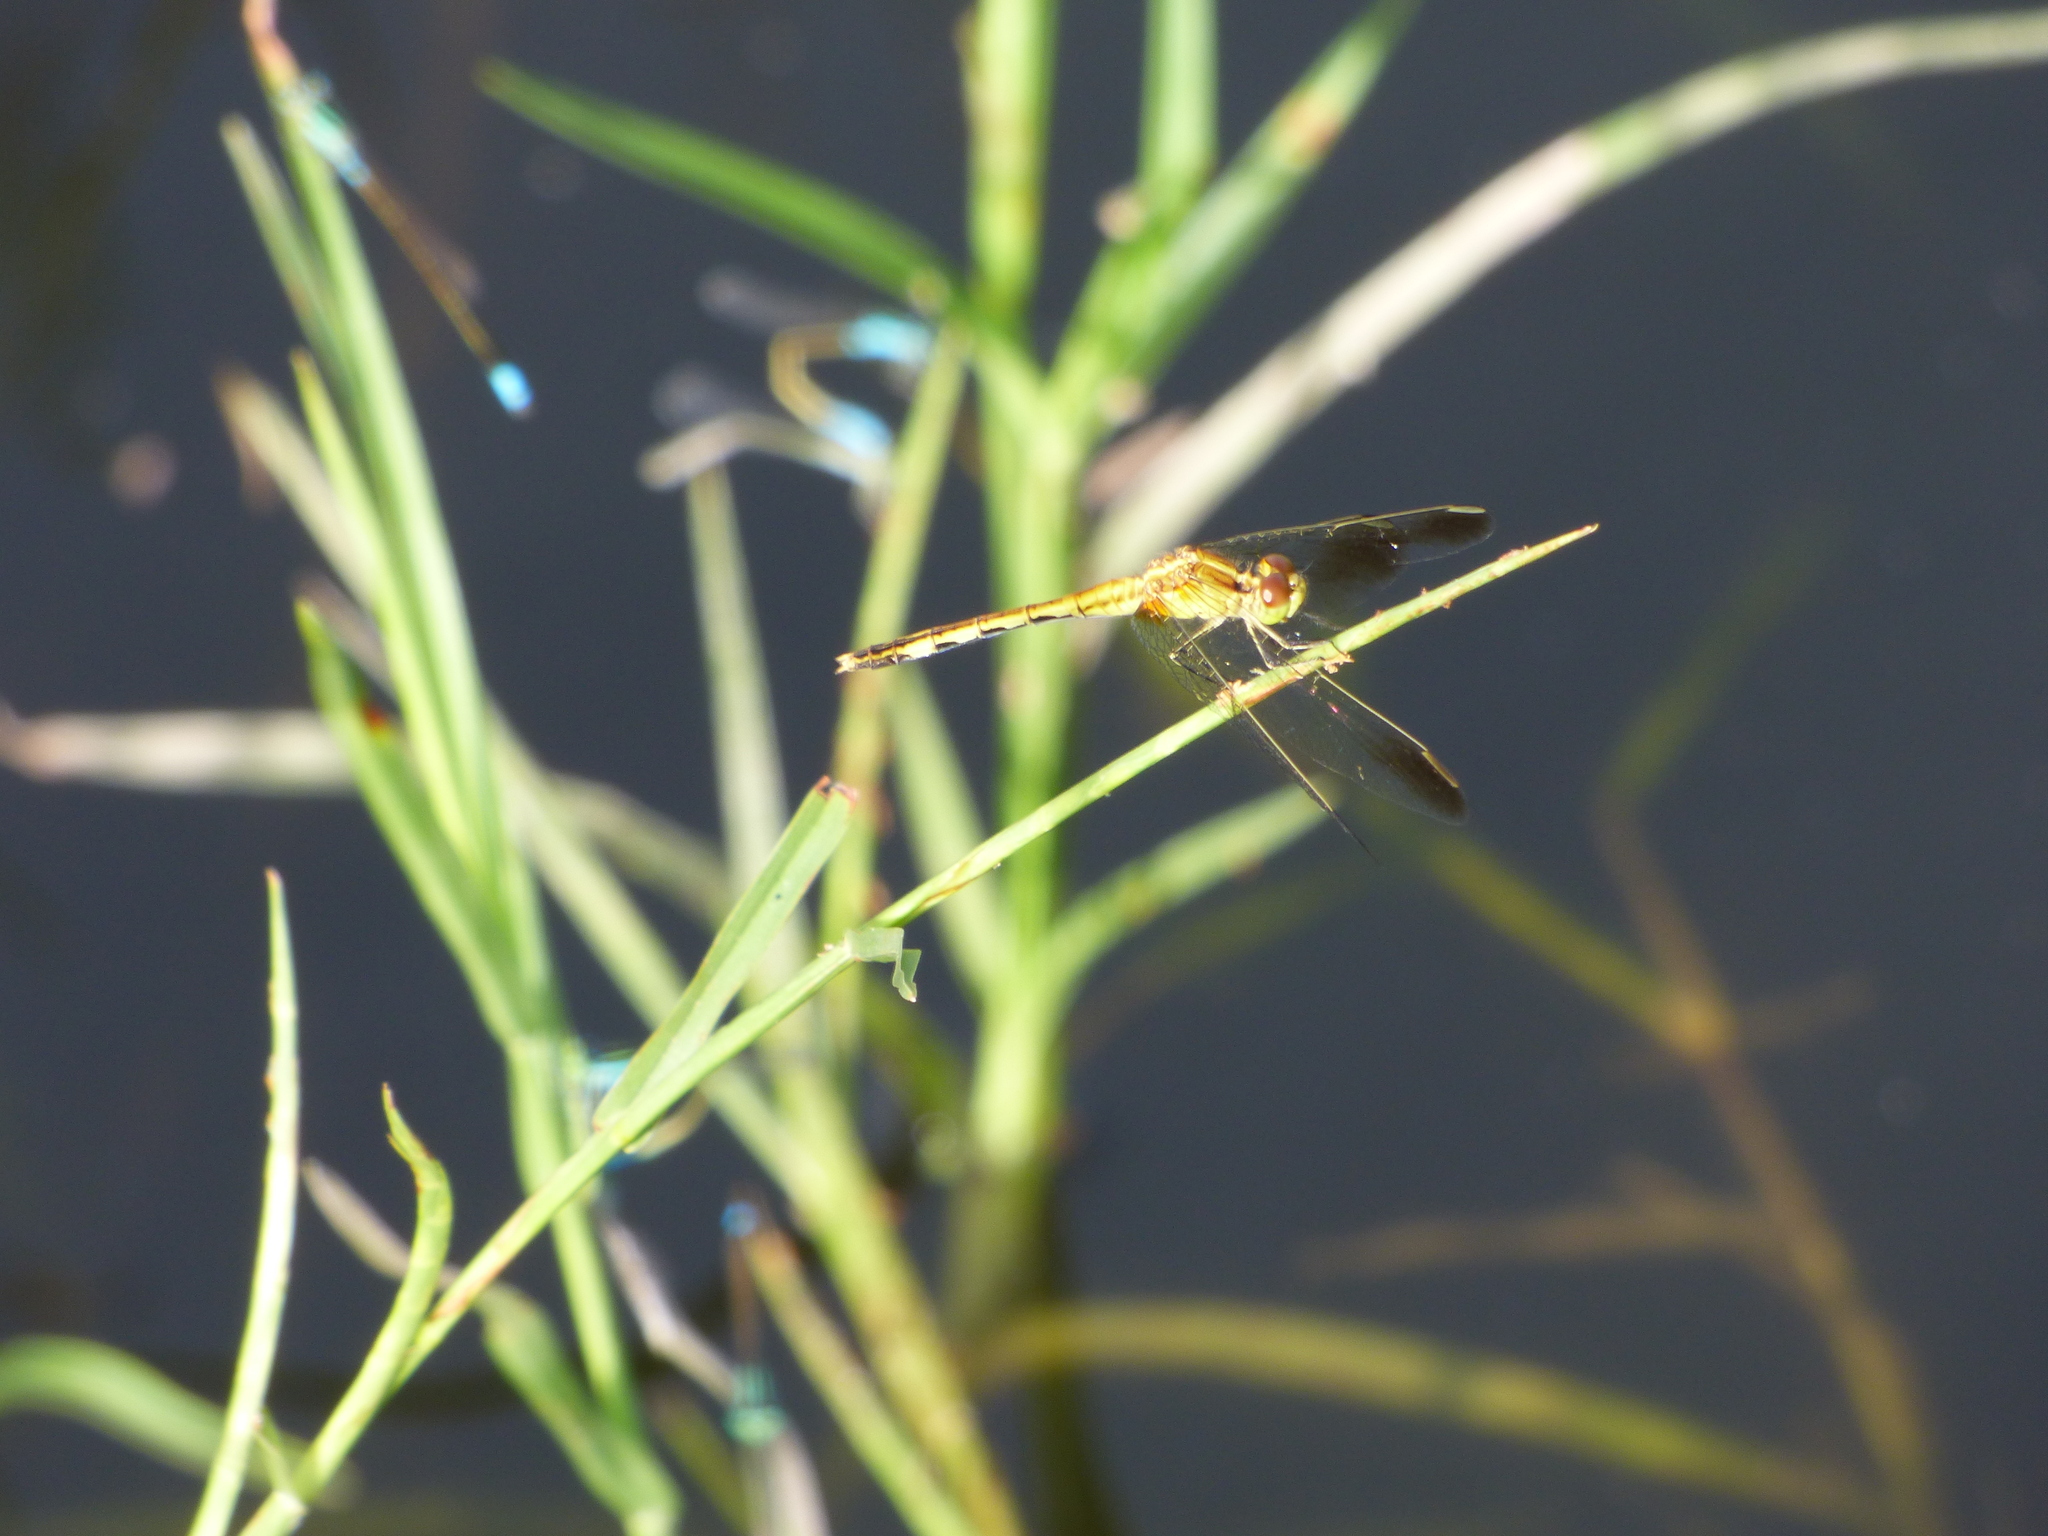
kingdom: Animalia
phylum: Arthropoda
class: Insecta
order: Odonata
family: Libellulidae
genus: Erythrodiplax
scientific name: Erythrodiplax nigricans
